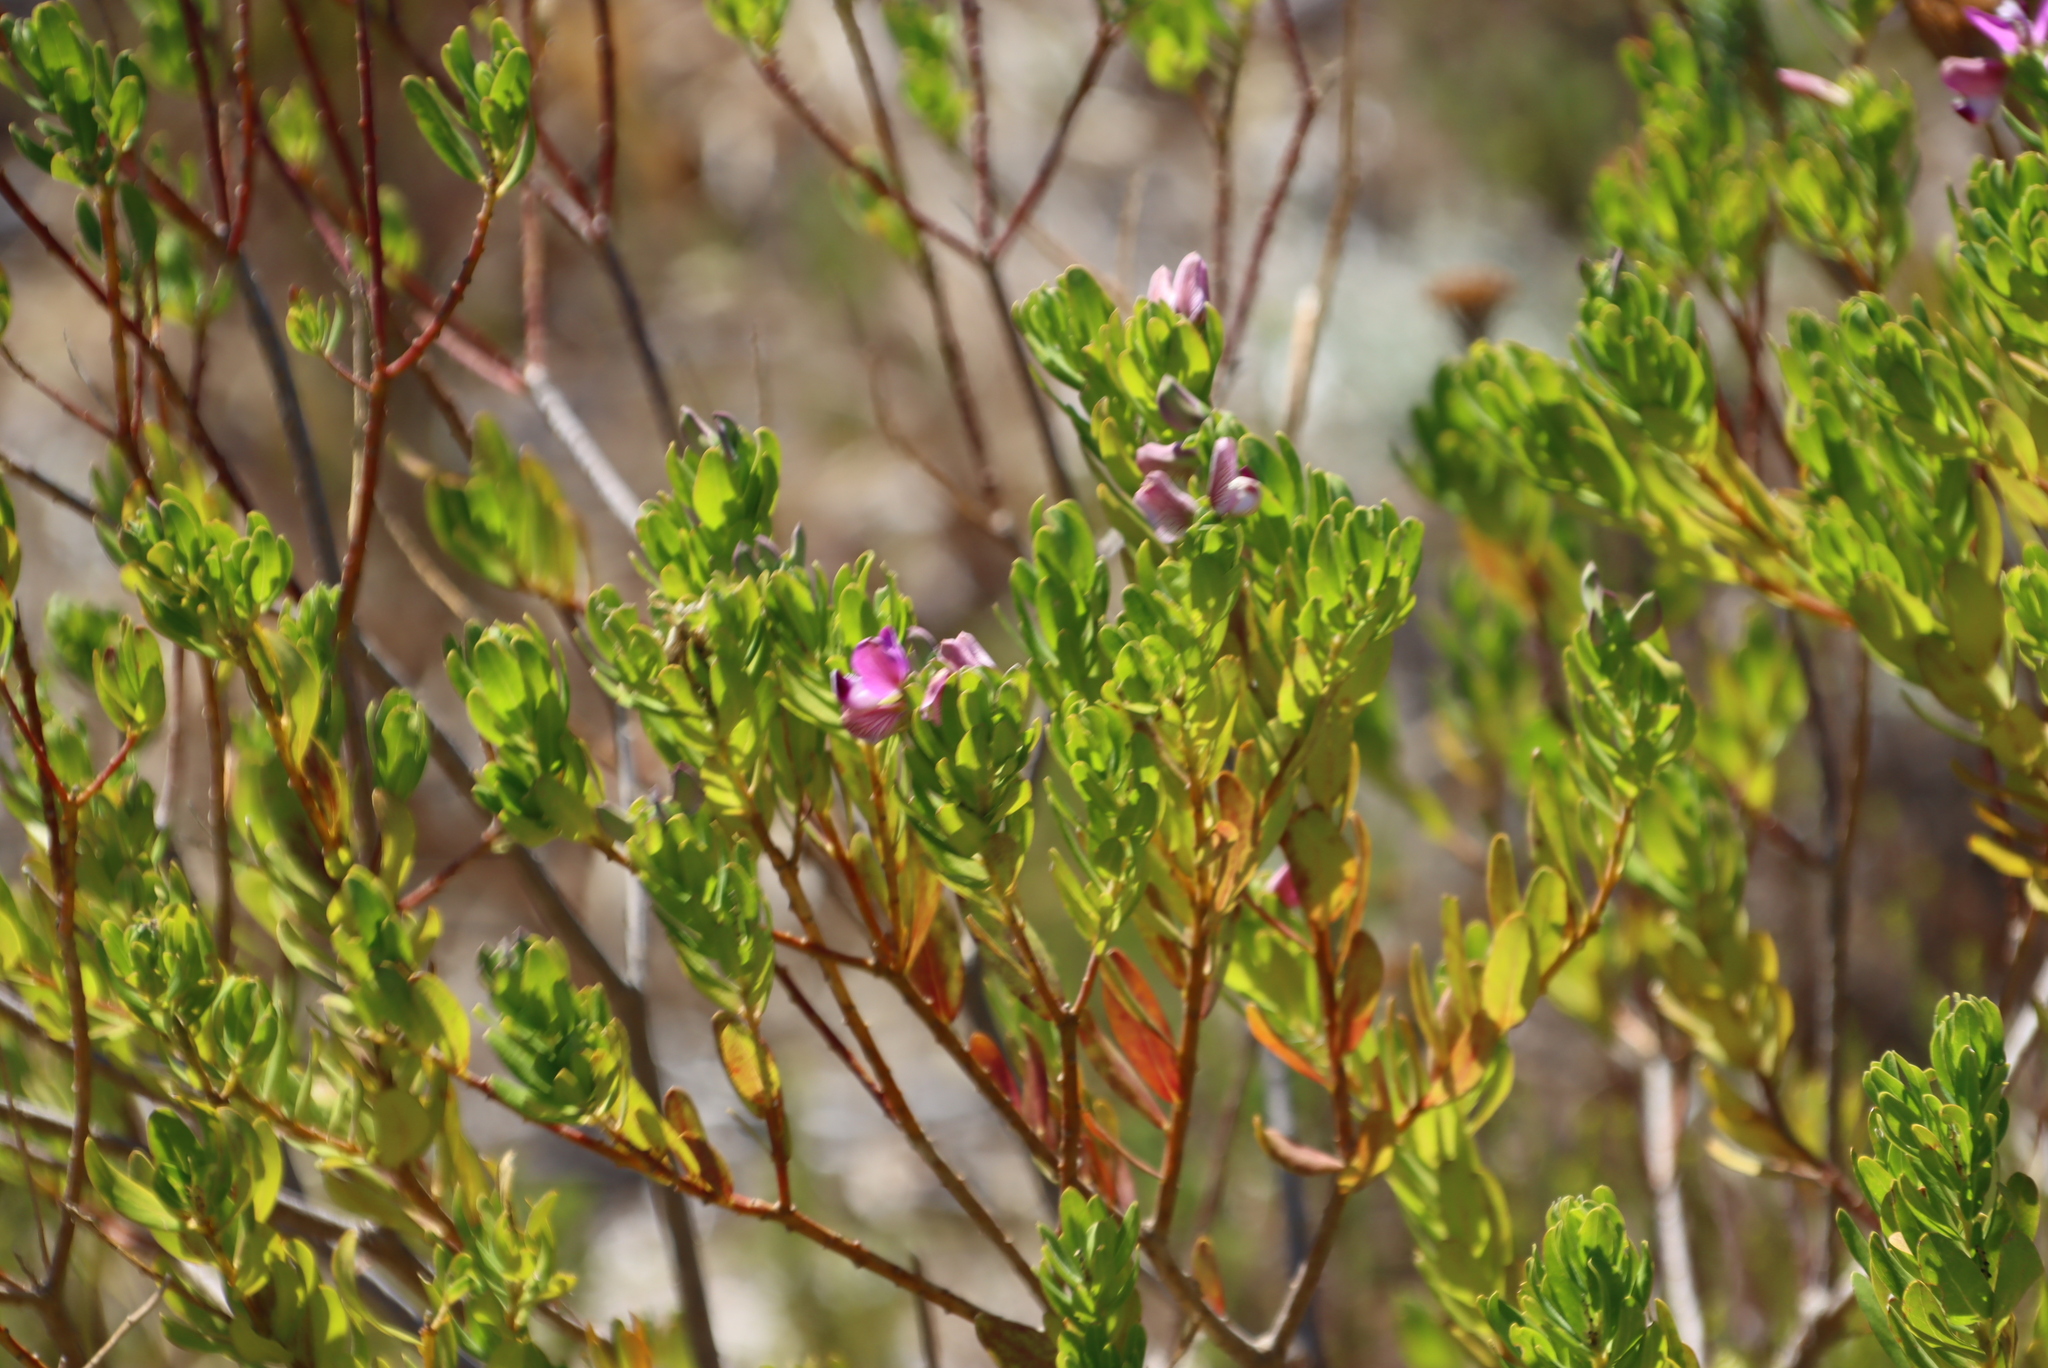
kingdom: Plantae
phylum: Tracheophyta
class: Magnoliopsida
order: Fabales
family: Polygalaceae
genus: Polygala
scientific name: Polygala myrtifolia
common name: Myrtle-leaf milkwort
